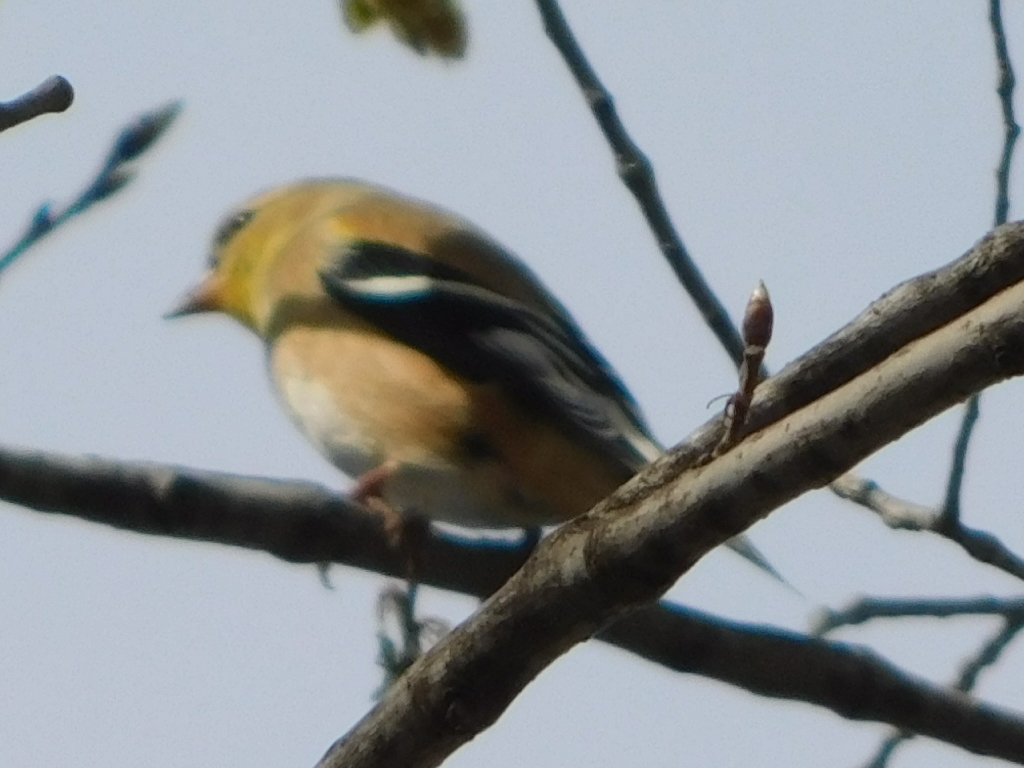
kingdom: Animalia
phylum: Chordata
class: Aves
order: Passeriformes
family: Fringillidae
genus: Spinus
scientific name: Spinus tristis
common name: American goldfinch
